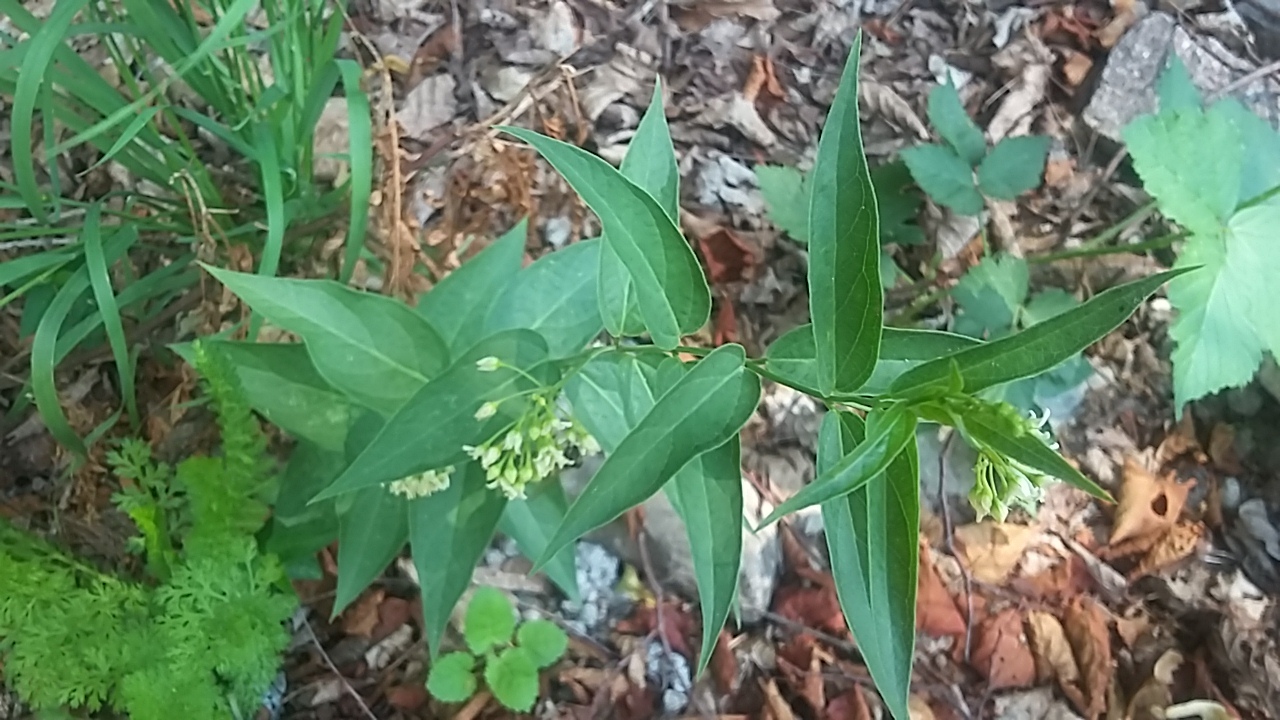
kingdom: Plantae
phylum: Tracheophyta
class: Magnoliopsida
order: Gentianales
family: Apocynaceae
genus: Vincetoxicum
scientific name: Vincetoxicum hirundinaria
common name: White swallowwort
